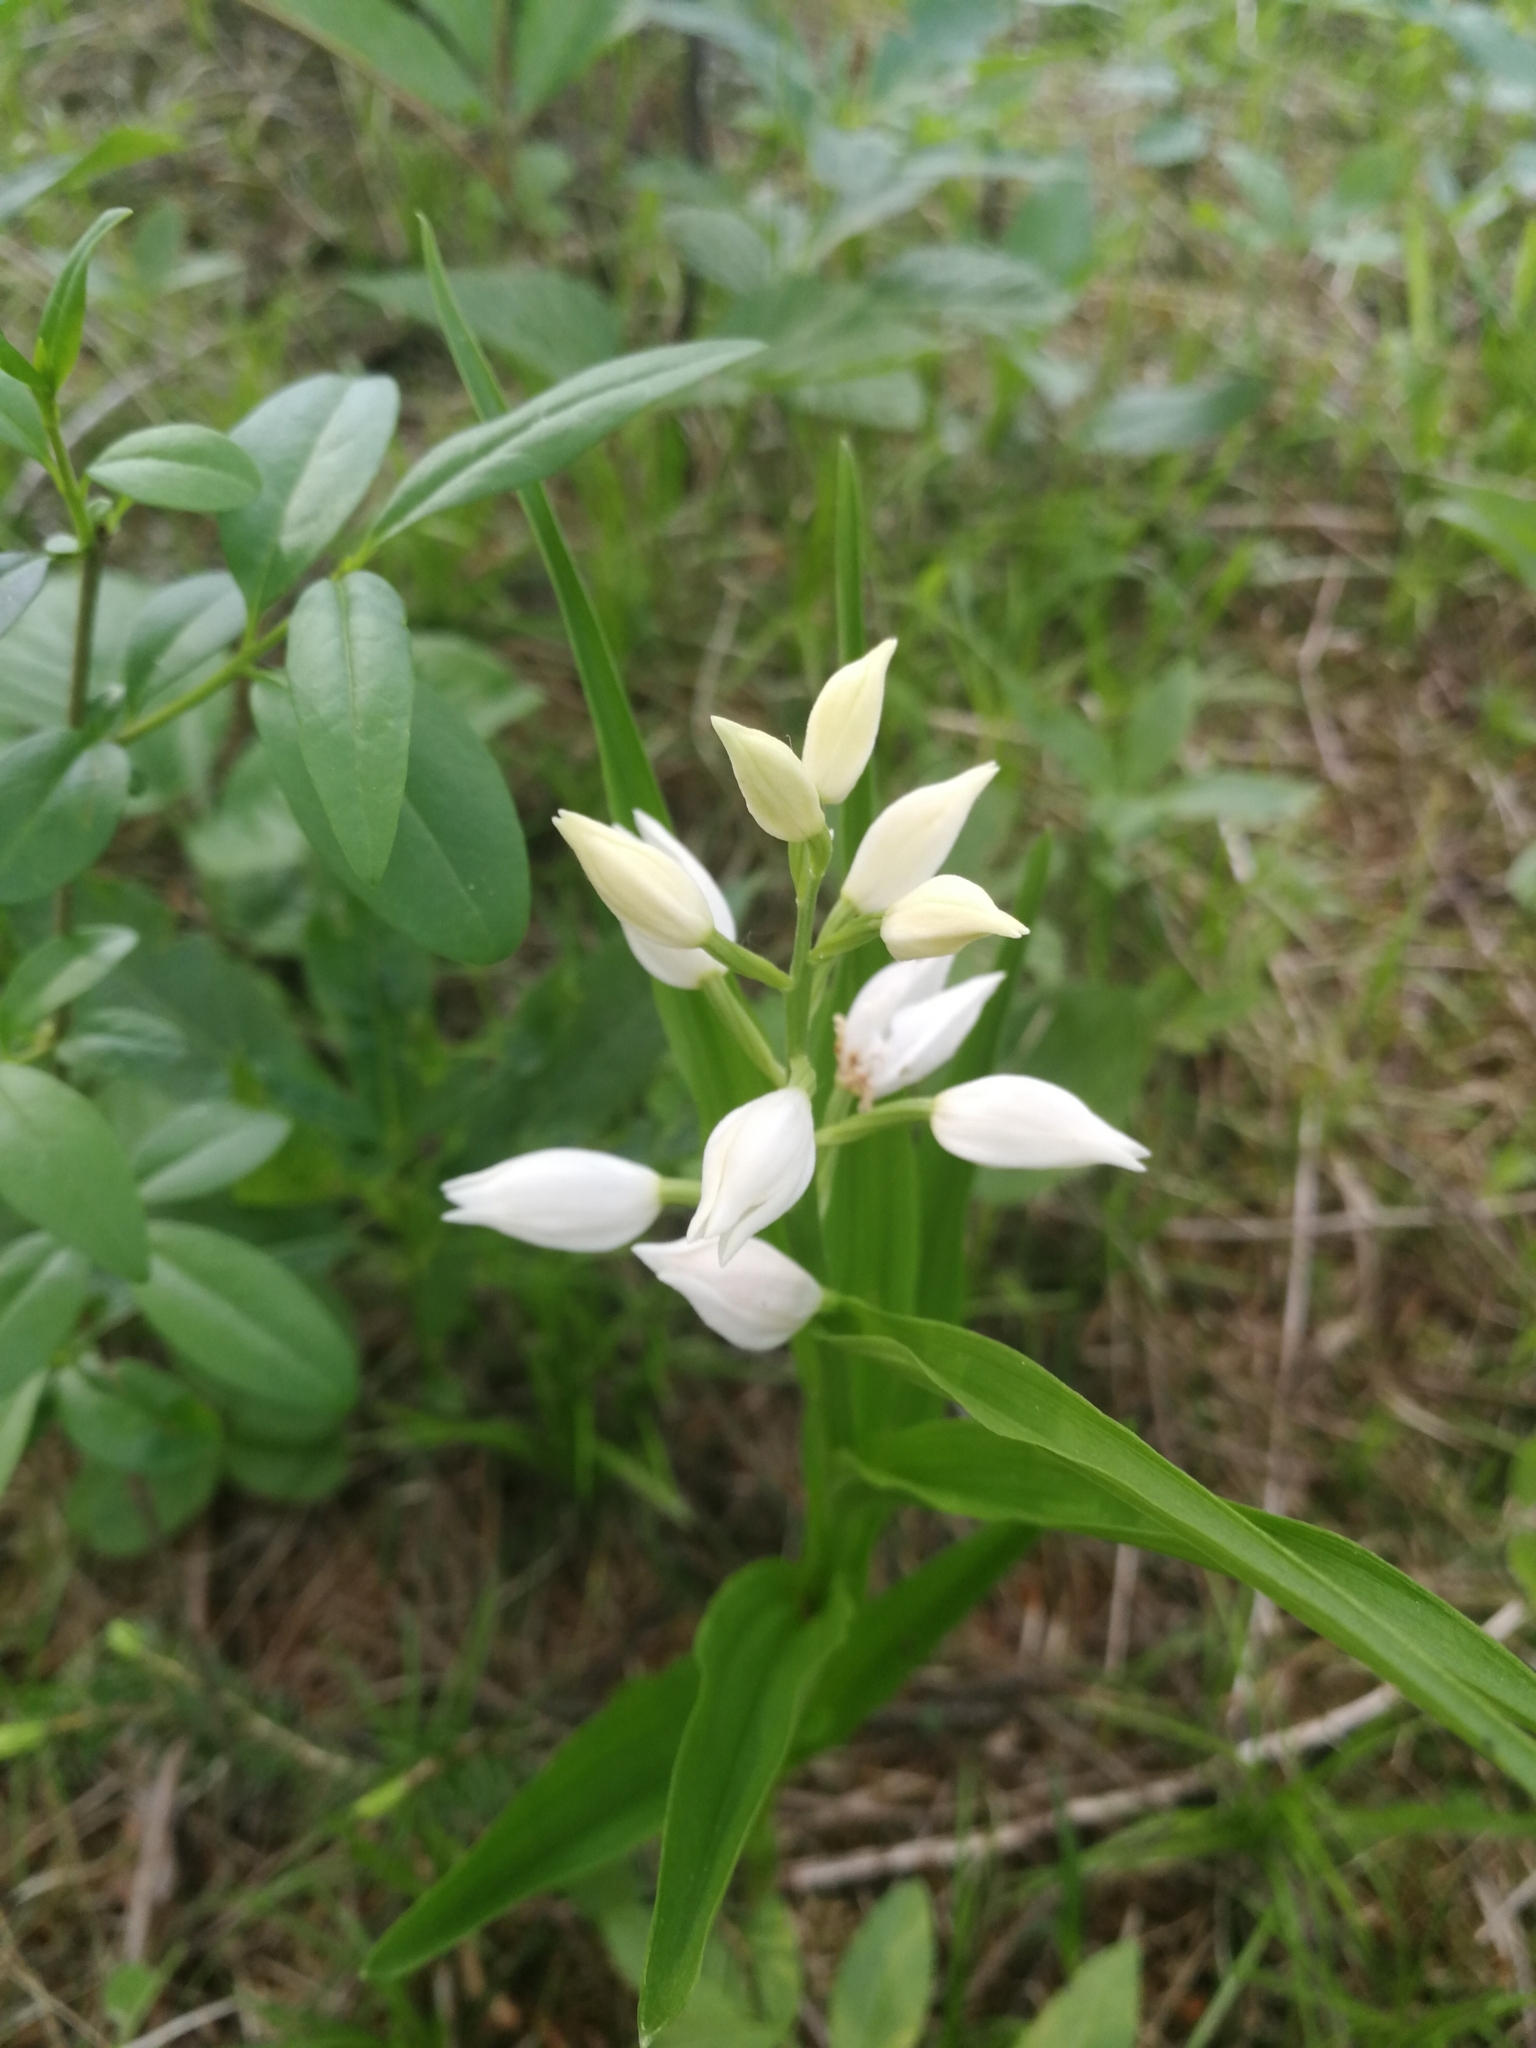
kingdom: Plantae
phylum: Tracheophyta
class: Liliopsida
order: Asparagales
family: Orchidaceae
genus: Cephalanthera
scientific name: Cephalanthera longifolia
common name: Narrow-leaved helleborine
